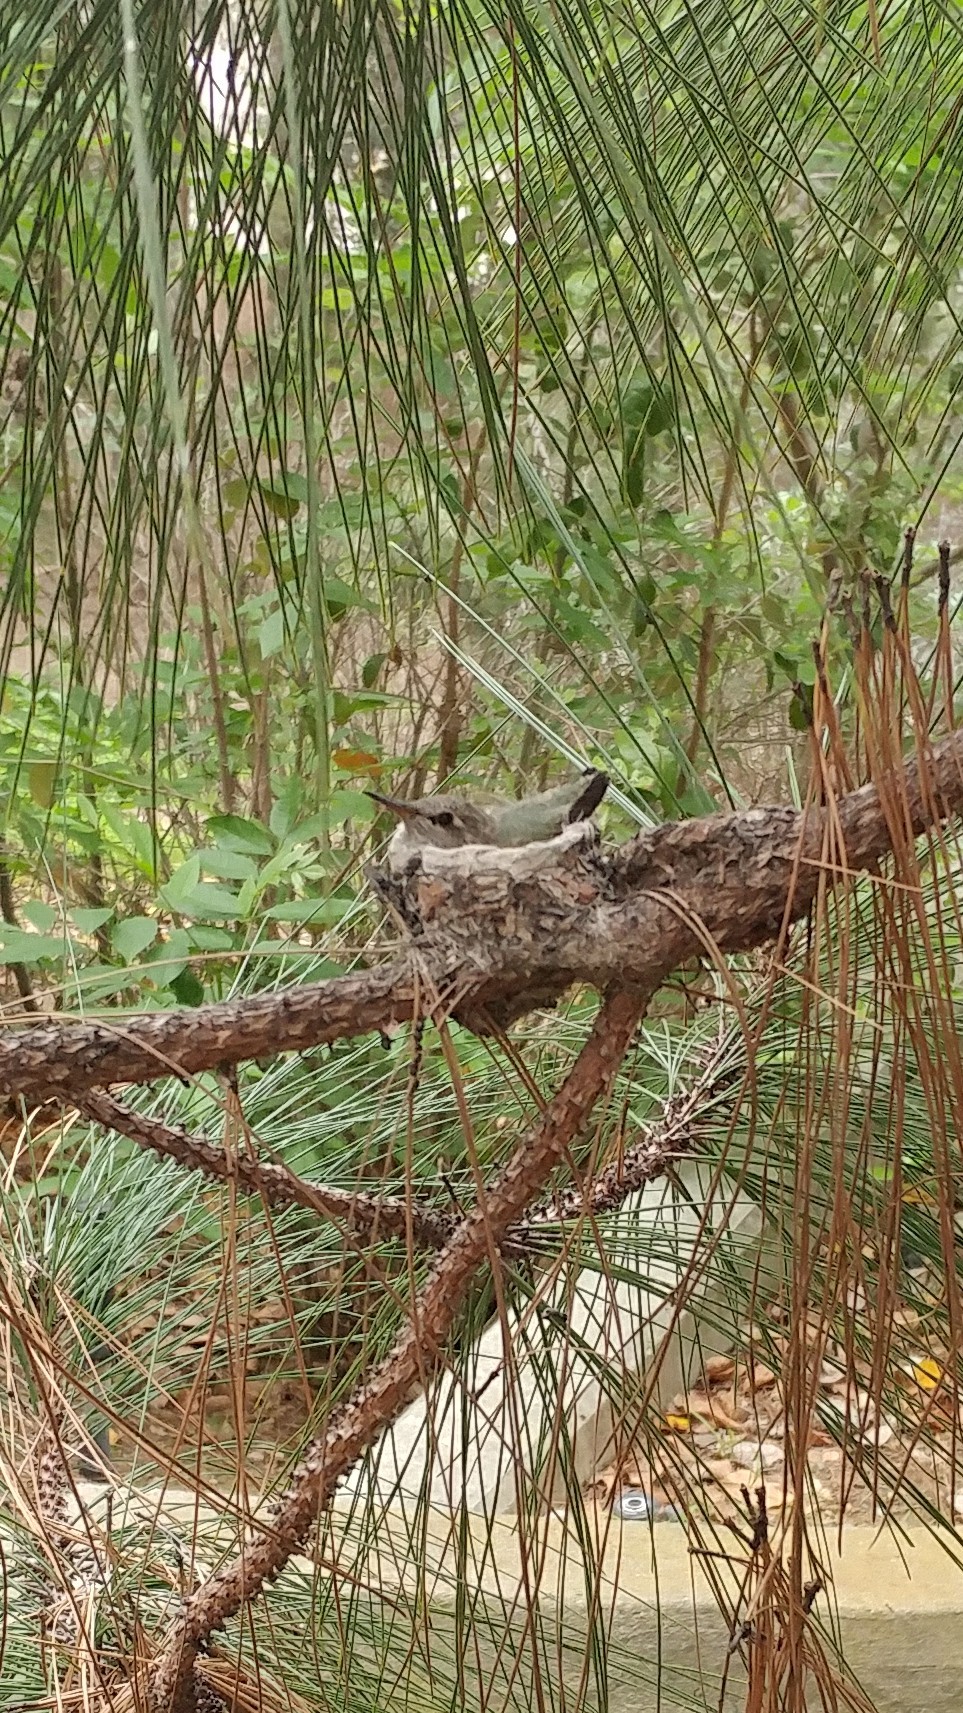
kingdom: Animalia
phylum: Chordata
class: Aves
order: Apodiformes
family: Trochilidae
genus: Calypte
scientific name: Calypte anna
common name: Anna's hummingbird
